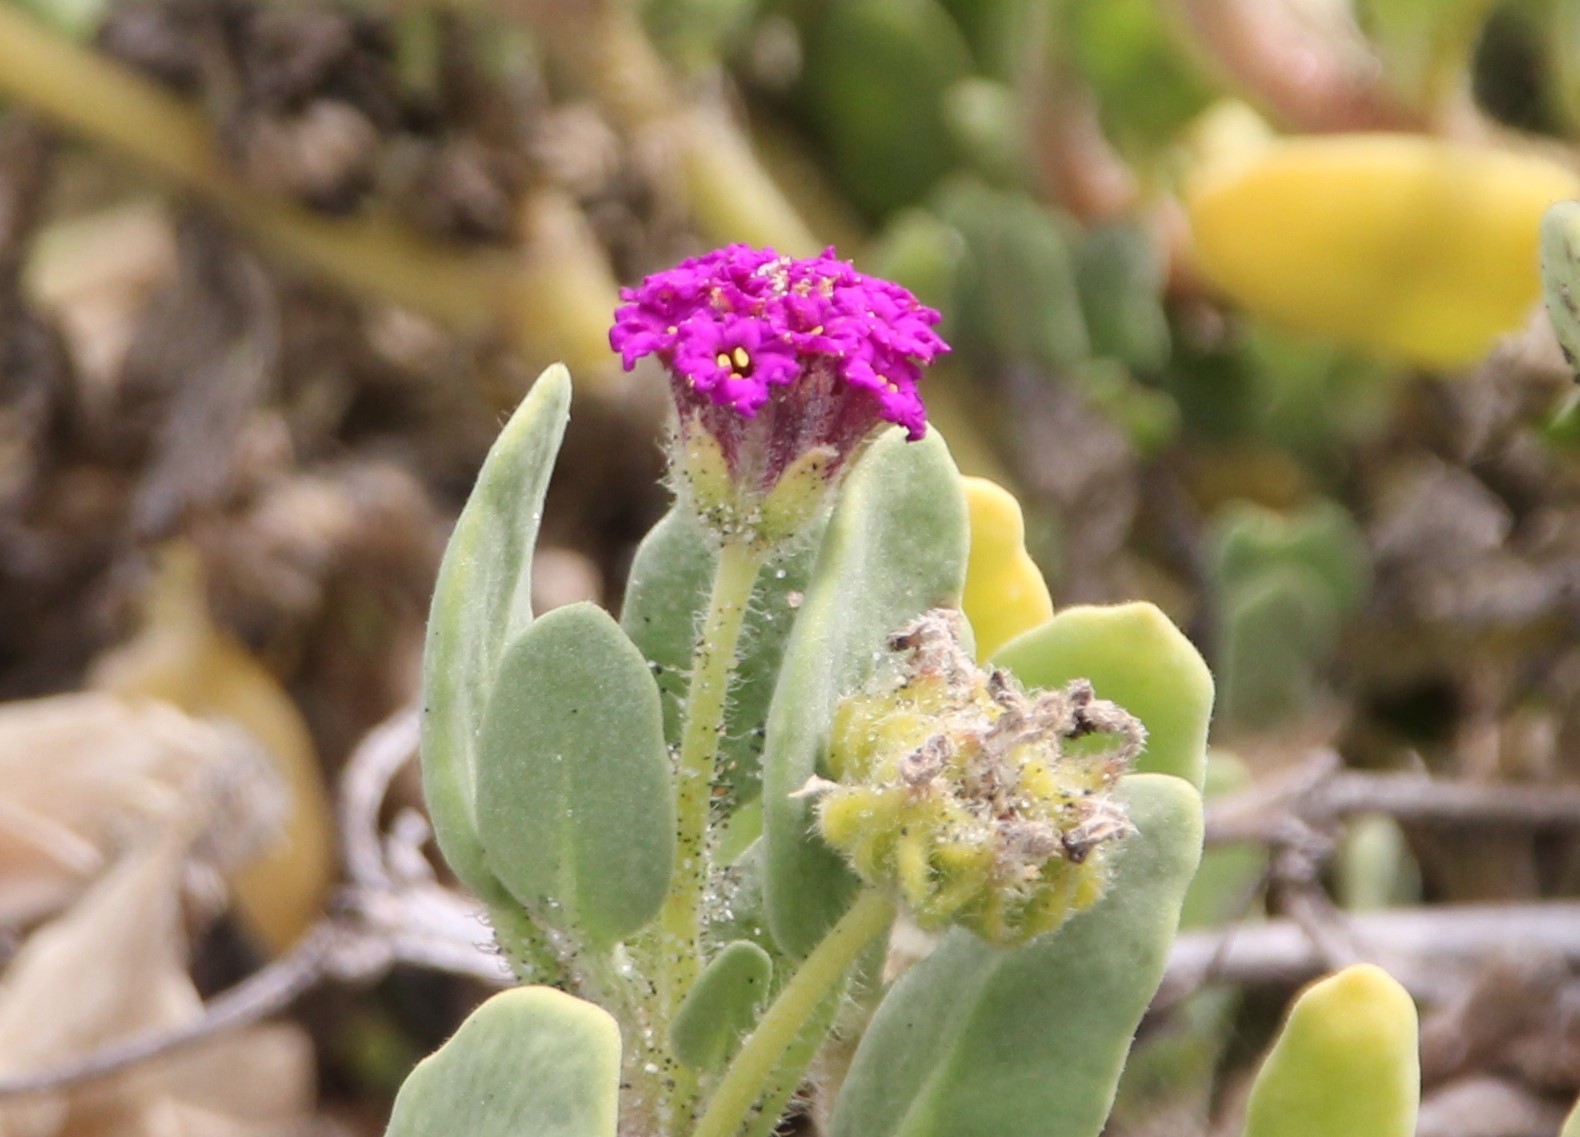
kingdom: Plantae
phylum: Tracheophyta
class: Magnoliopsida
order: Caryophyllales
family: Nyctaginaceae
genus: Abronia
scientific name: Abronia maritima
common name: Red sand-verbena
